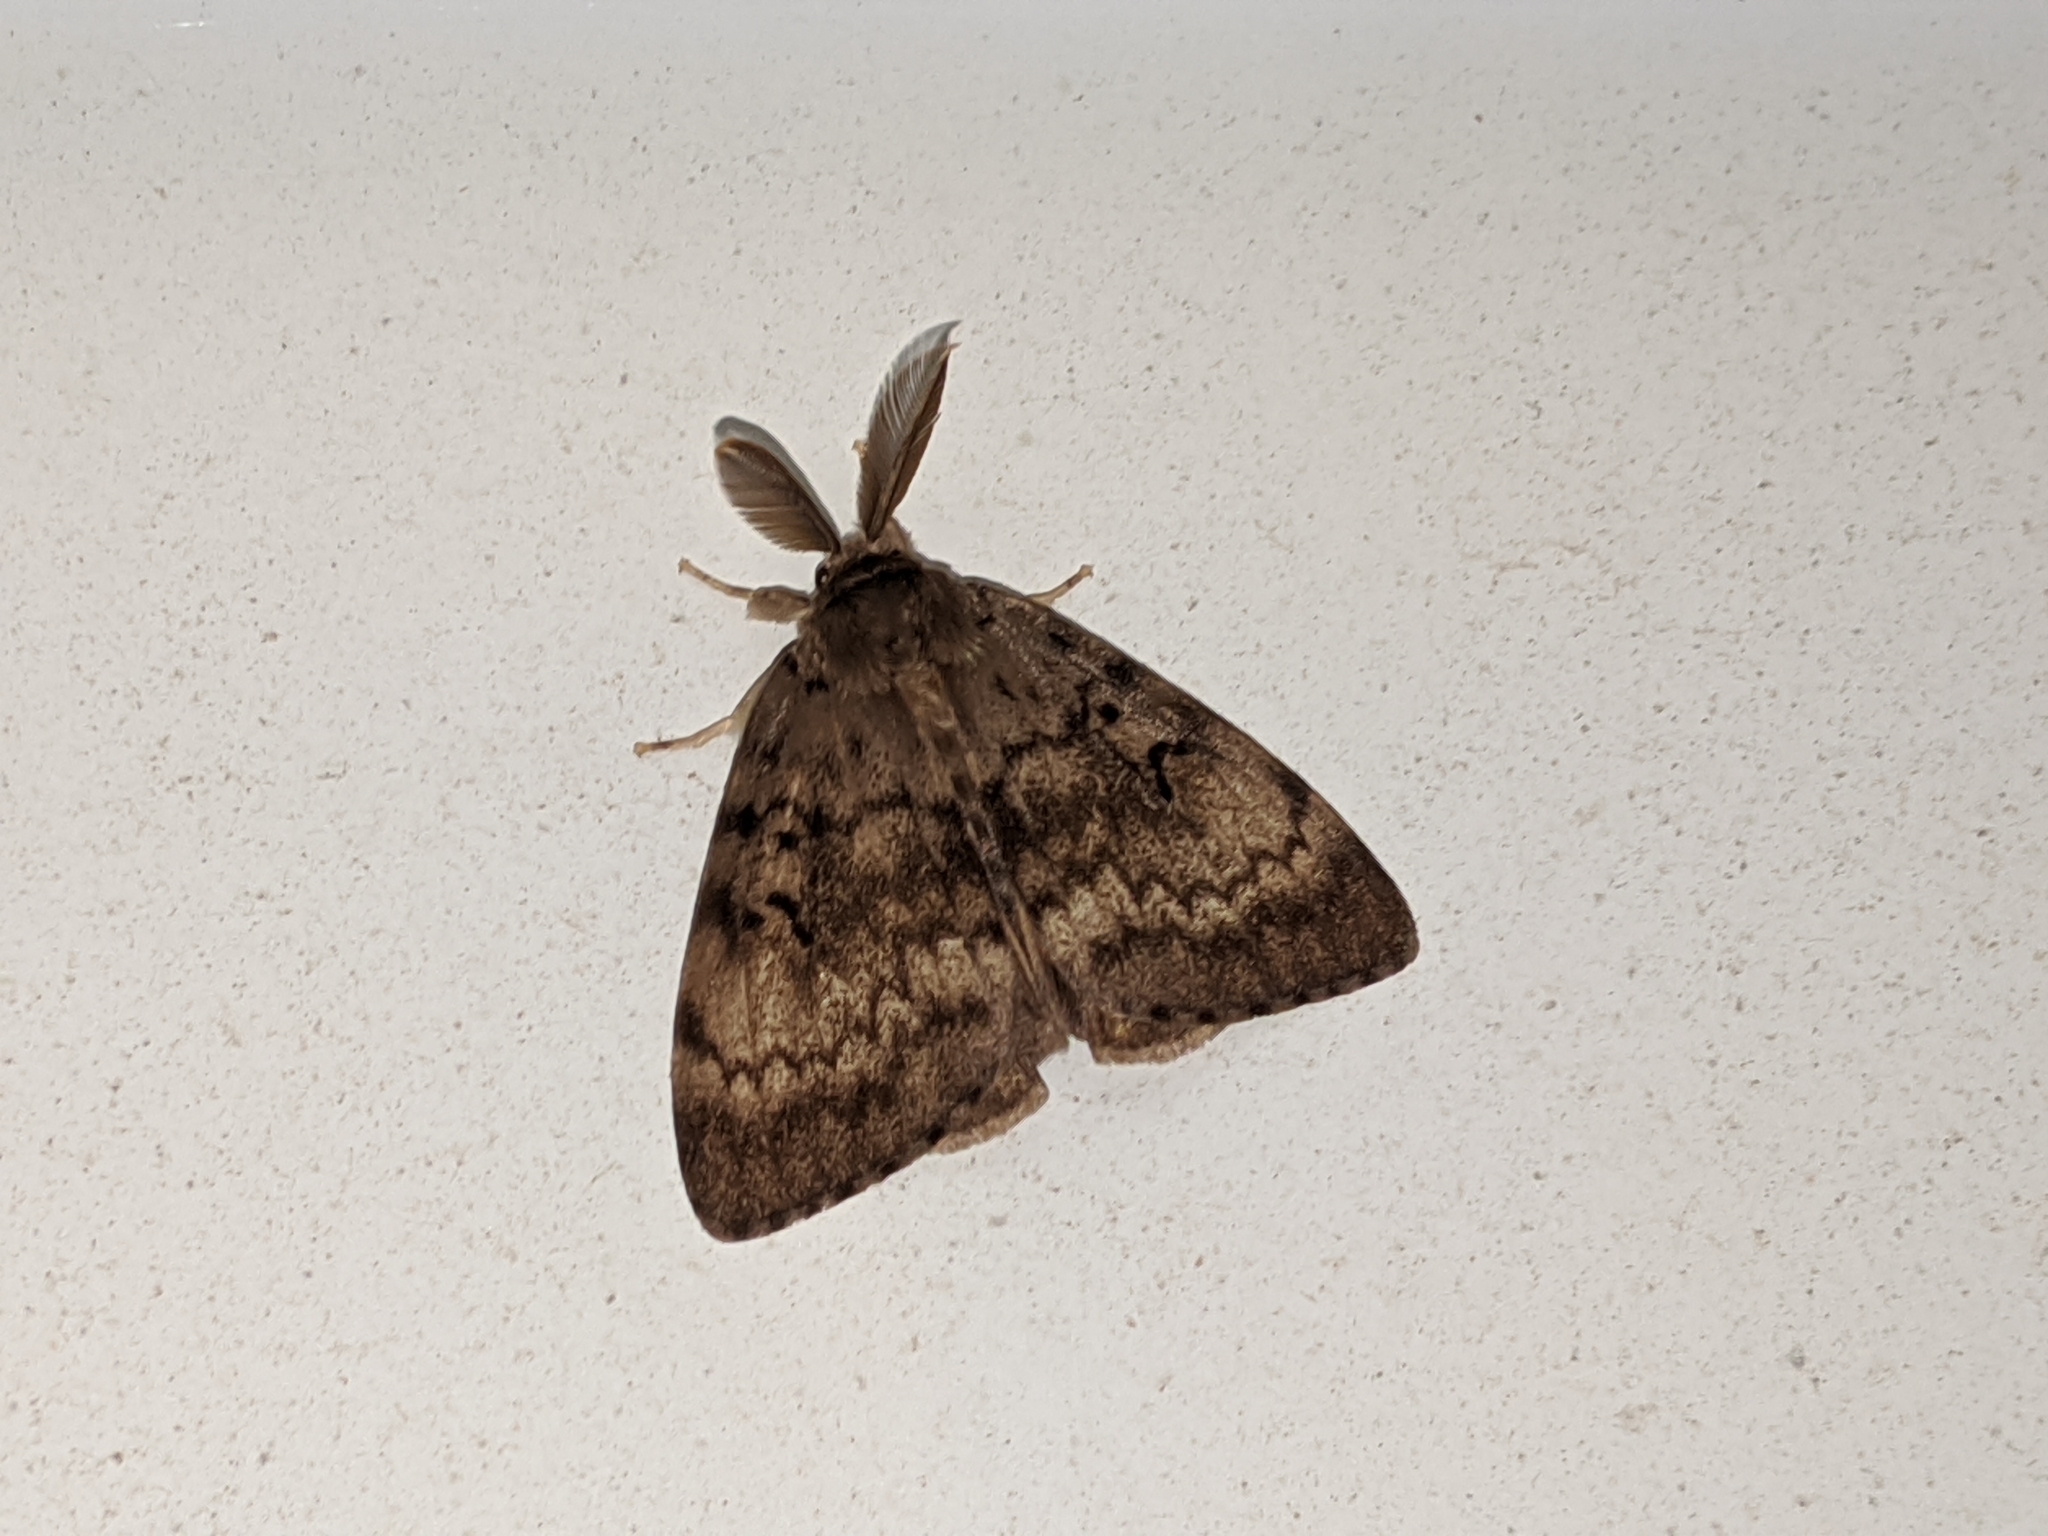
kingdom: Animalia
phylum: Arthropoda
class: Insecta
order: Lepidoptera
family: Erebidae
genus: Lymantria
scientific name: Lymantria dispar
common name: Gypsy moth
